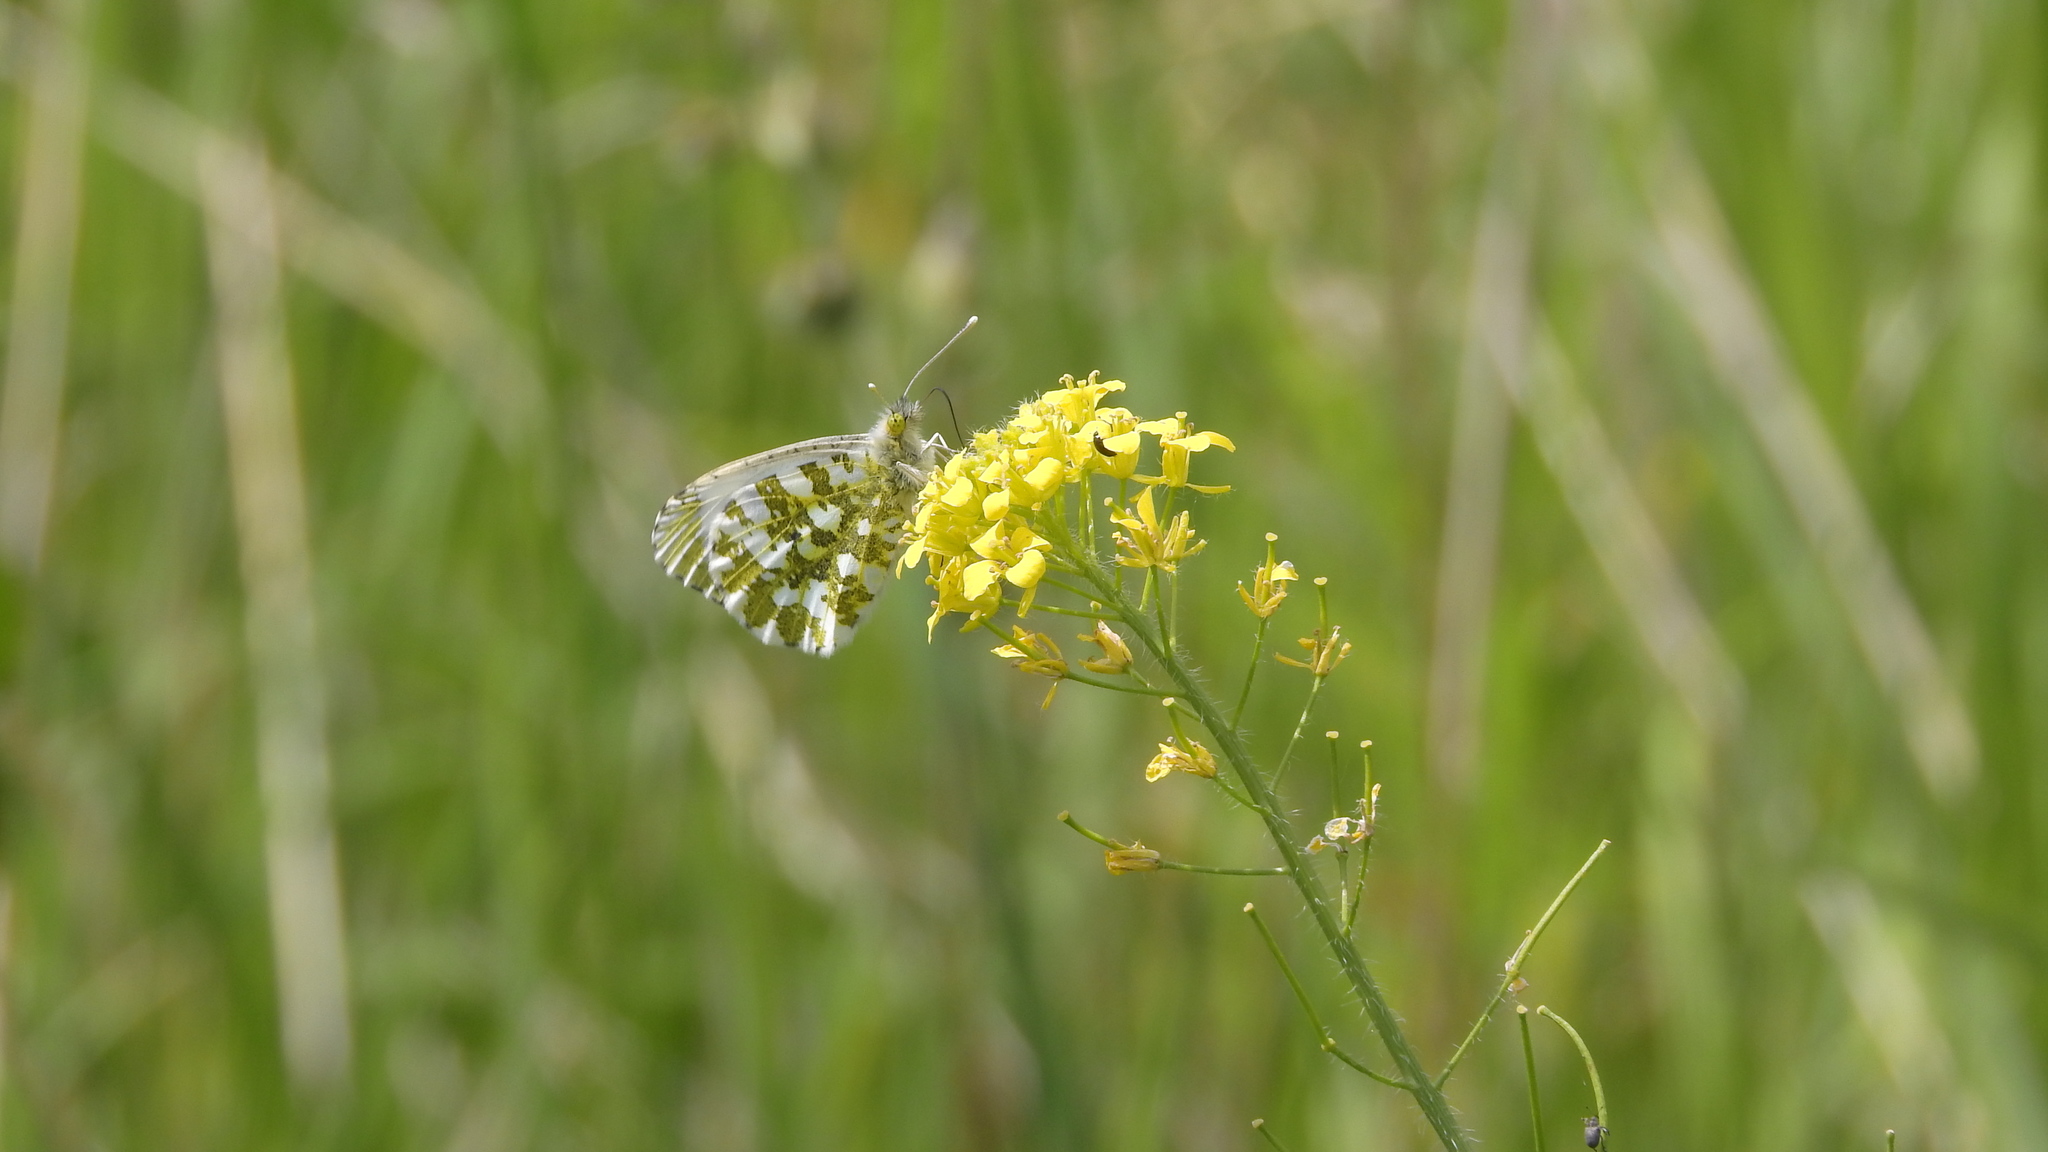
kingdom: Animalia
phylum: Arthropoda
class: Insecta
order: Lepidoptera
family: Pieridae
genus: Anthocharis
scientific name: Anthocharis cardamines
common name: Orange-tip
